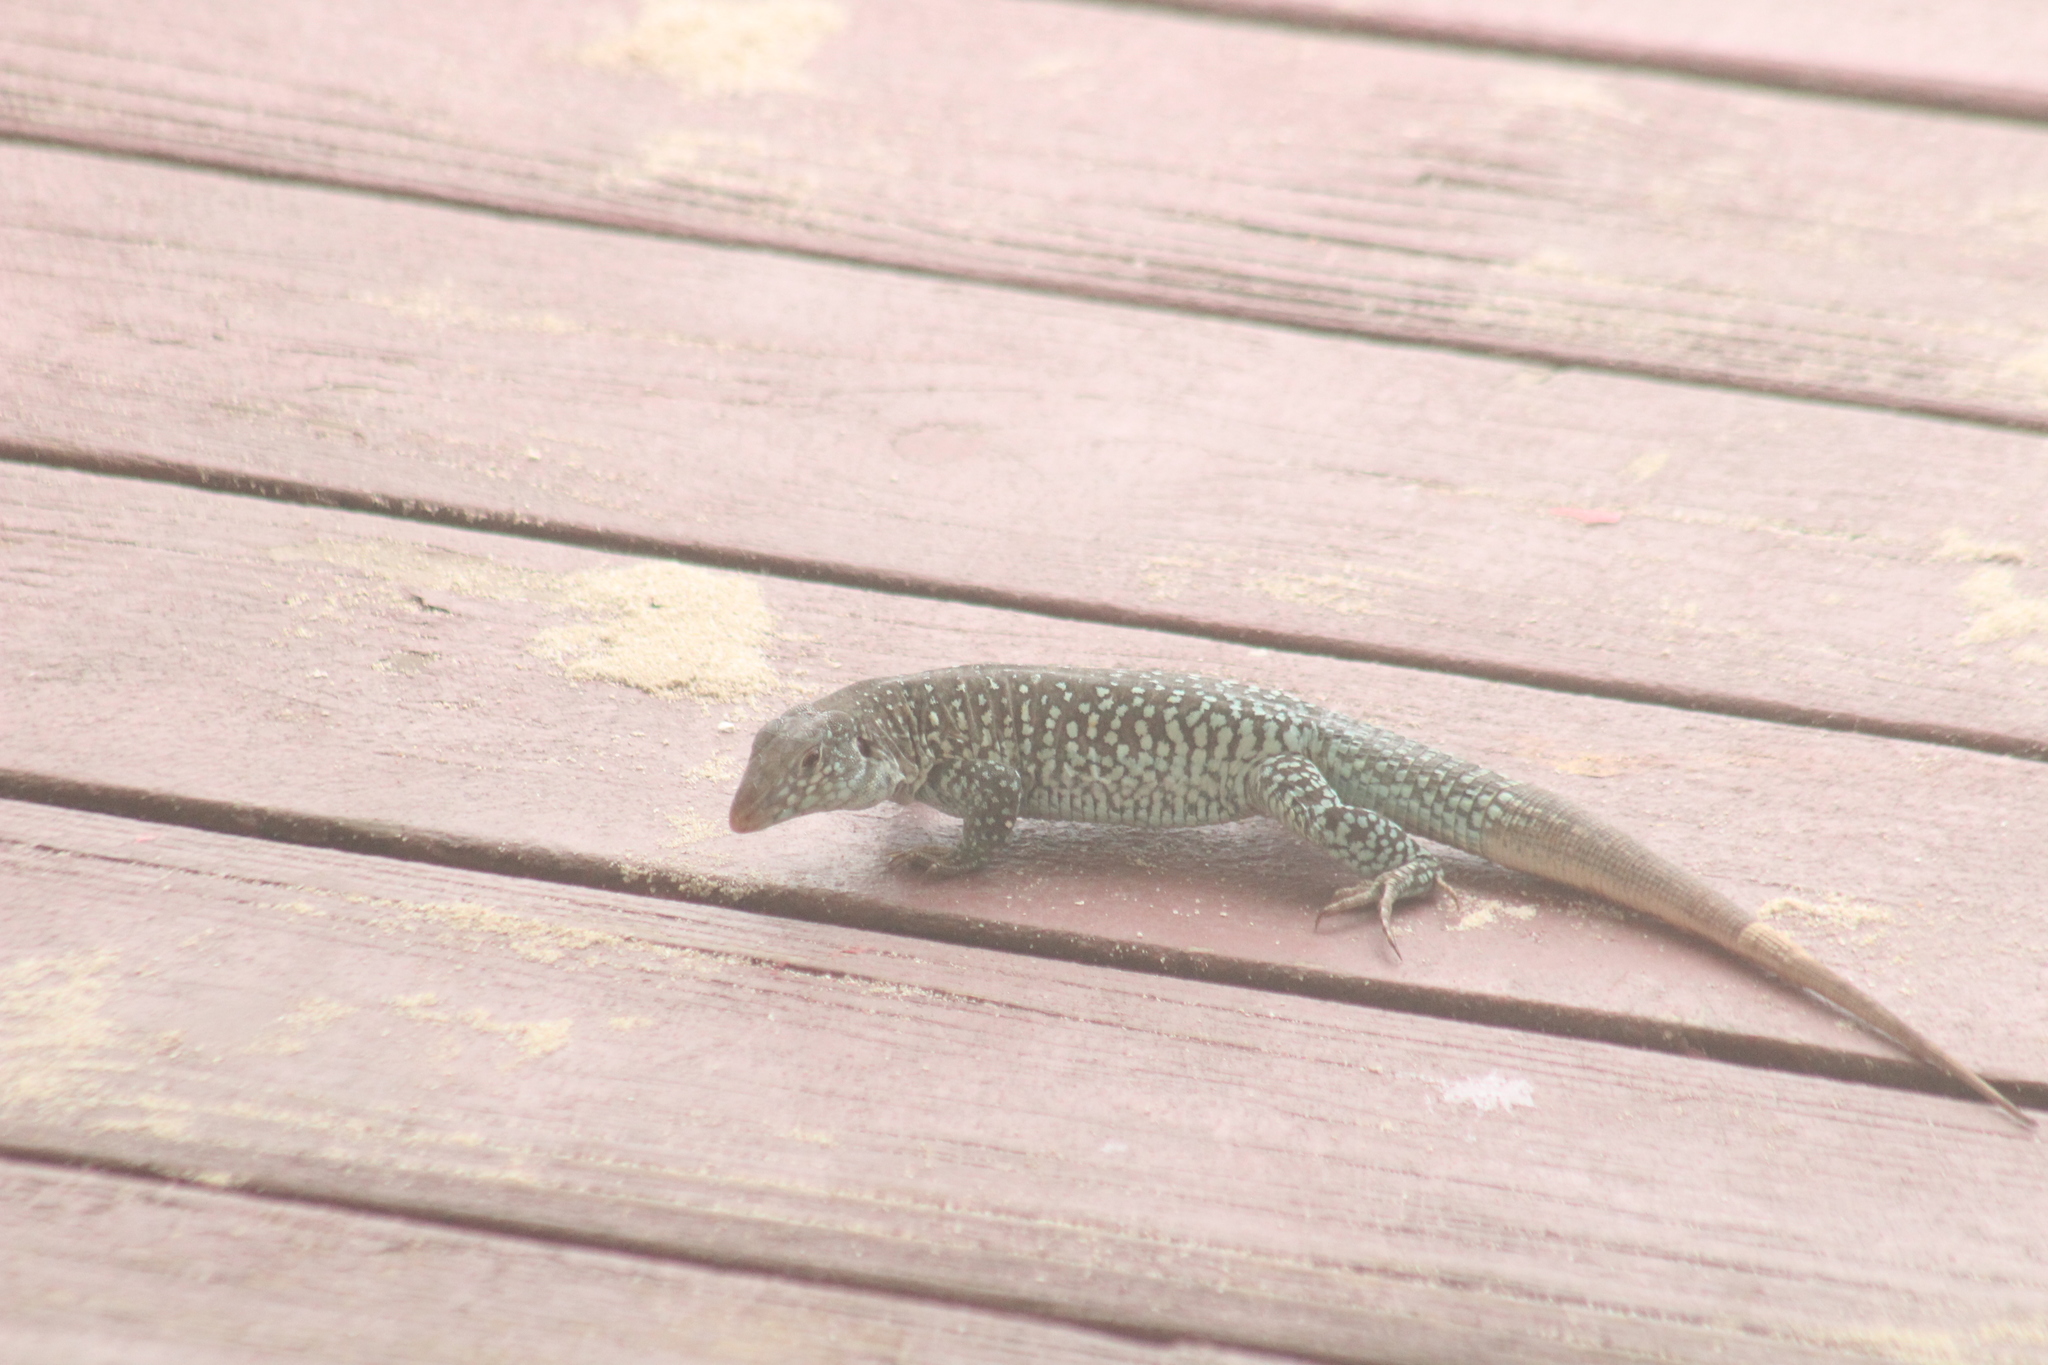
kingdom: Animalia
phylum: Chordata
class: Squamata
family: Teiidae
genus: Pholidoscelis
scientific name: Pholidoscelis plei
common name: Anguilla bank ameiva
